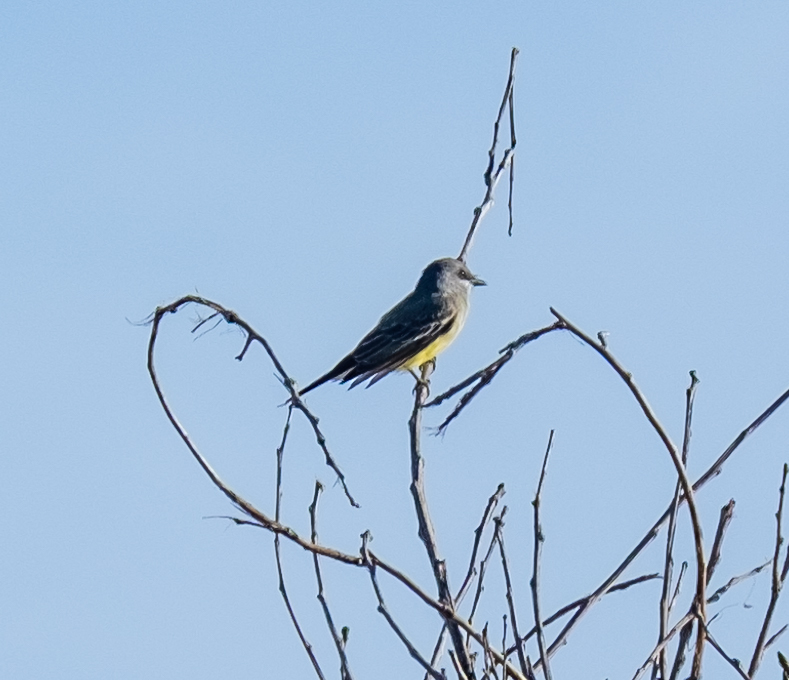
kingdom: Animalia
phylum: Chordata
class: Aves
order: Passeriformes
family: Tyrannidae
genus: Tyrannus
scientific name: Tyrannus vociferans
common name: Cassin's kingbird
